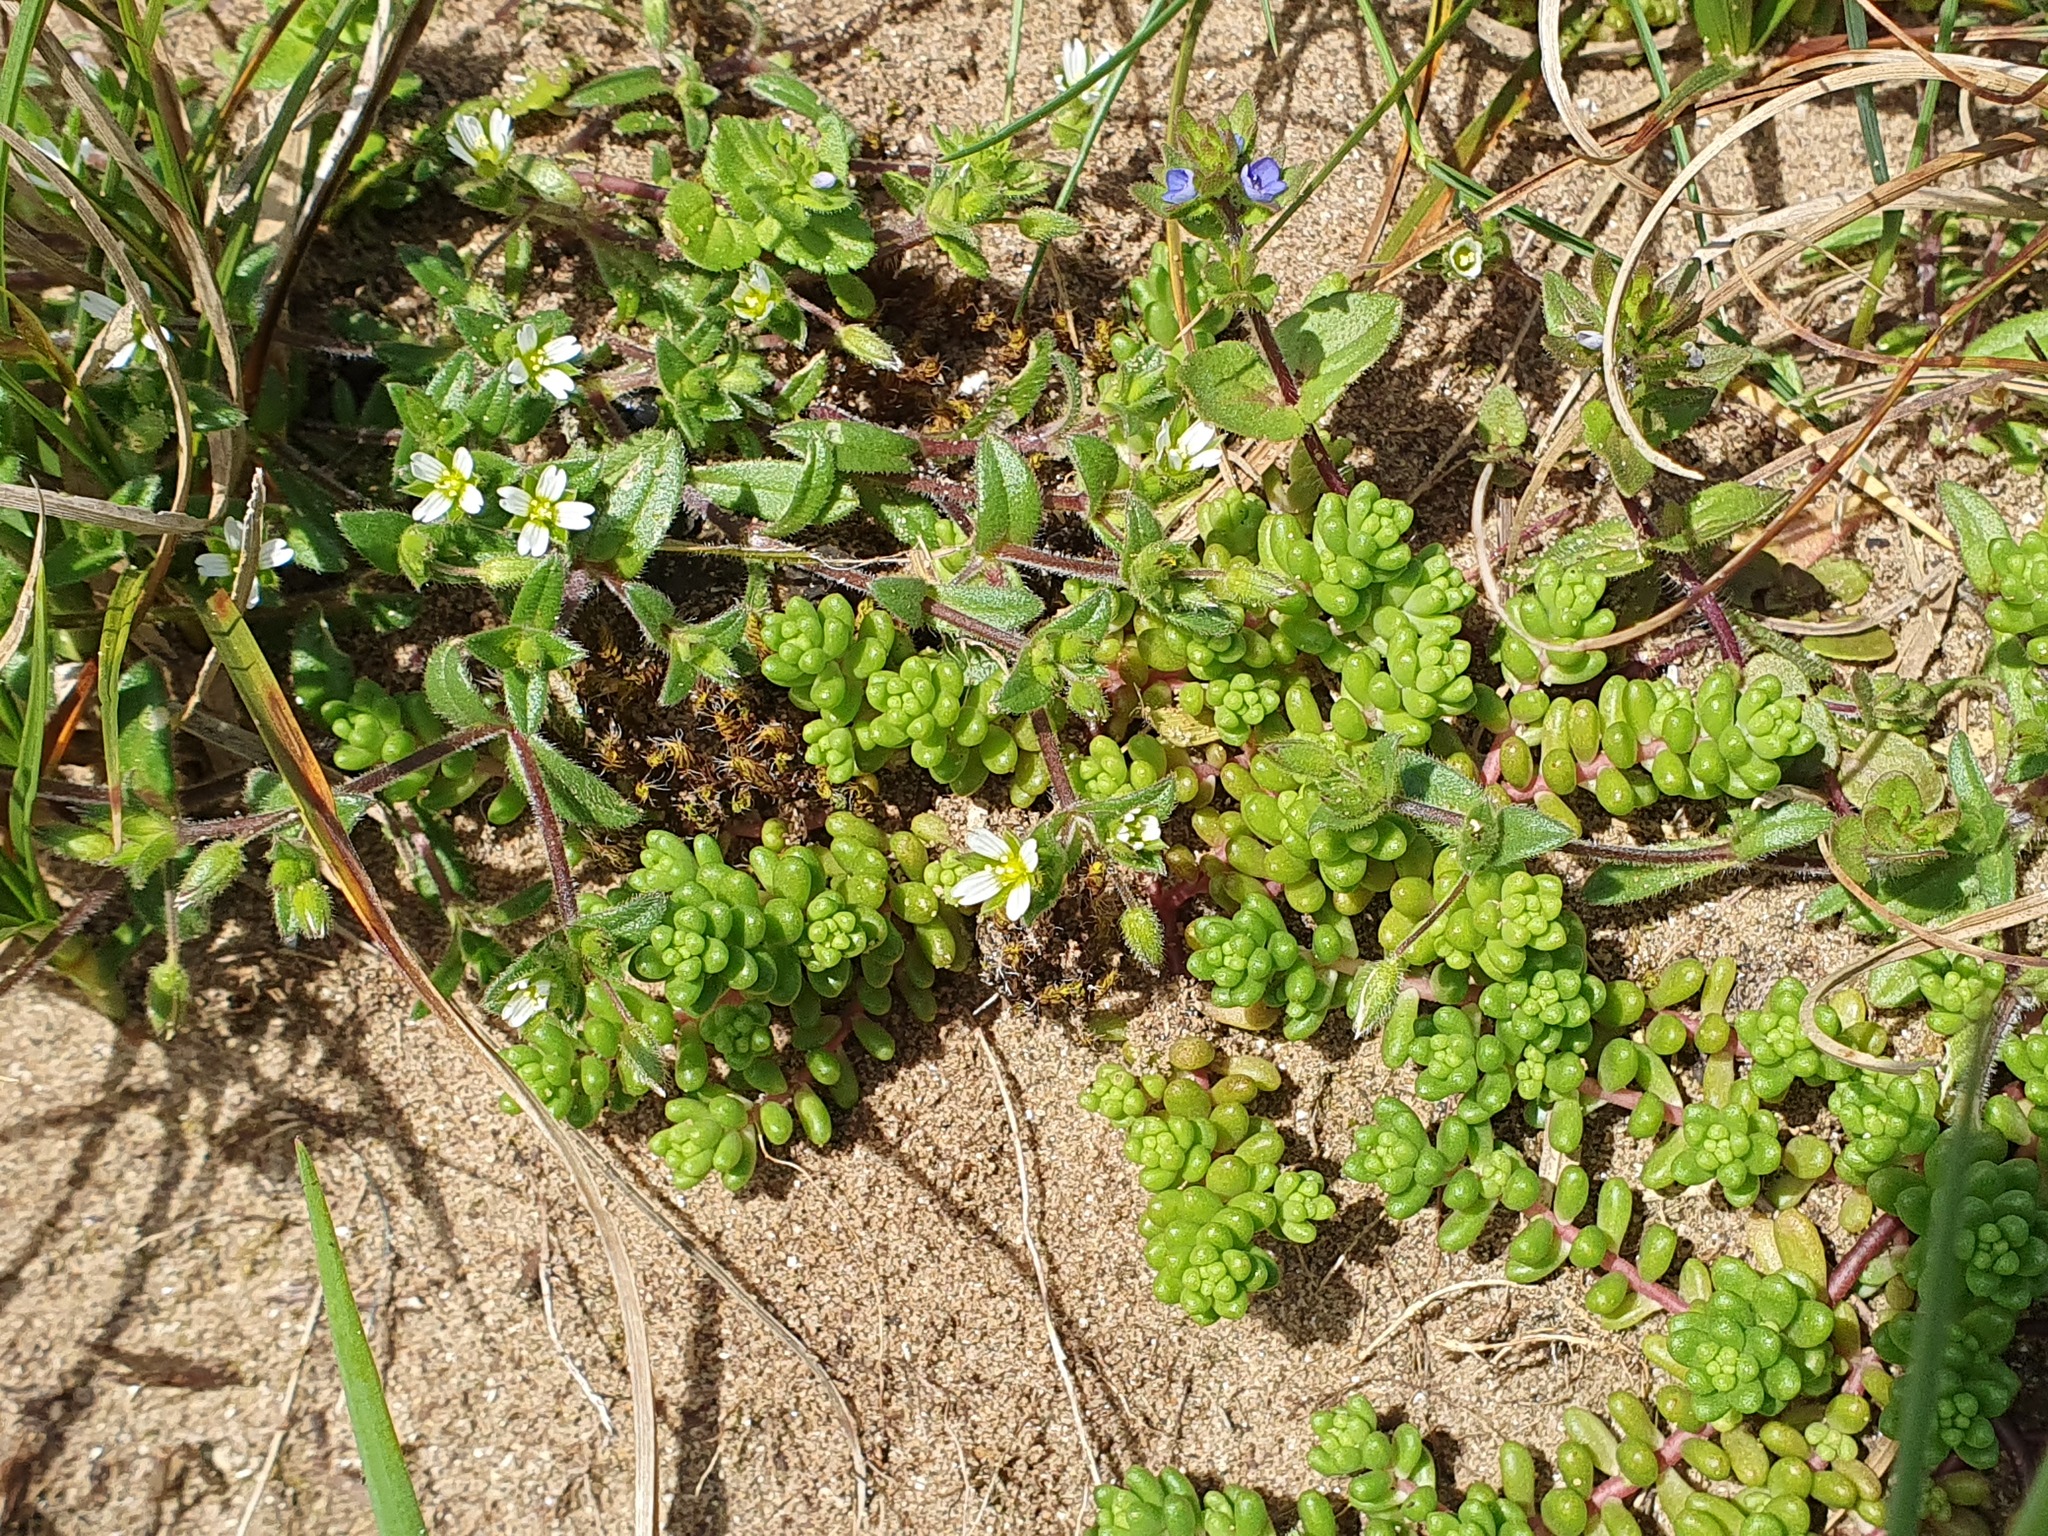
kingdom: Plantae
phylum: Tracheophyta
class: Magnoliopsida
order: Saxifragales
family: Crassulaceae
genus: Sedum
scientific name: Sedum album
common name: White stonecrop
